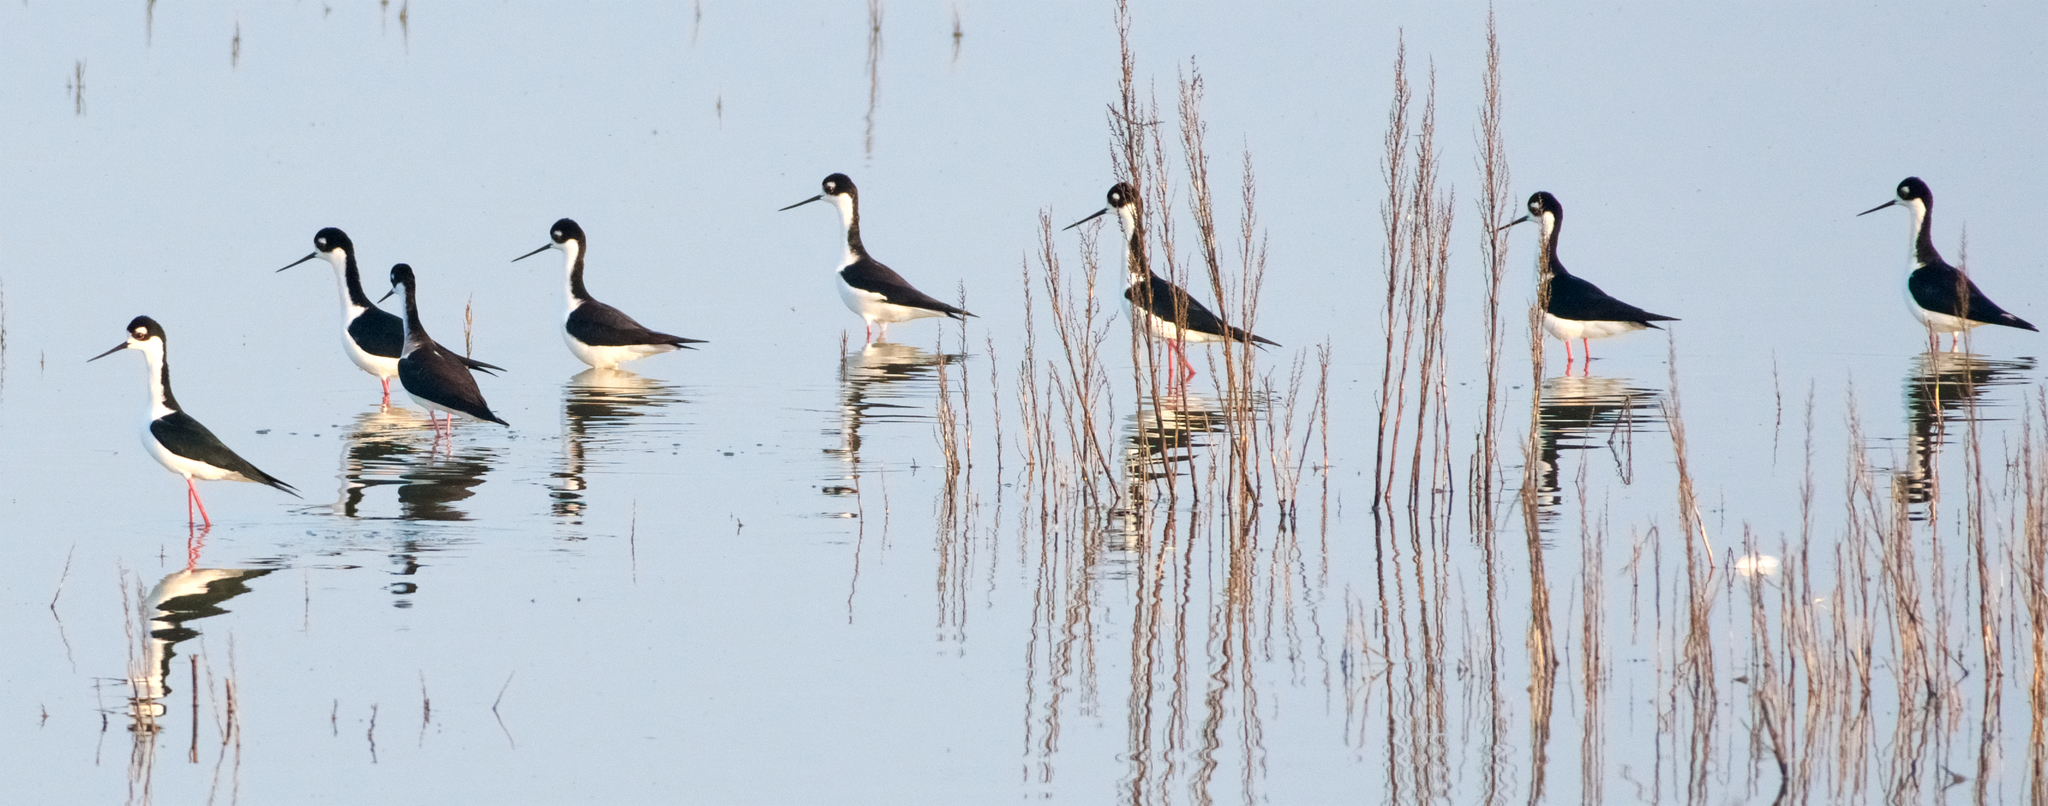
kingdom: Animalia
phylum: Chordata
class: Aves
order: Charadriiformes
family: Recurvirostridae
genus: Himantopus
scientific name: Himantopus mexicanus
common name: Black-necked stilt
